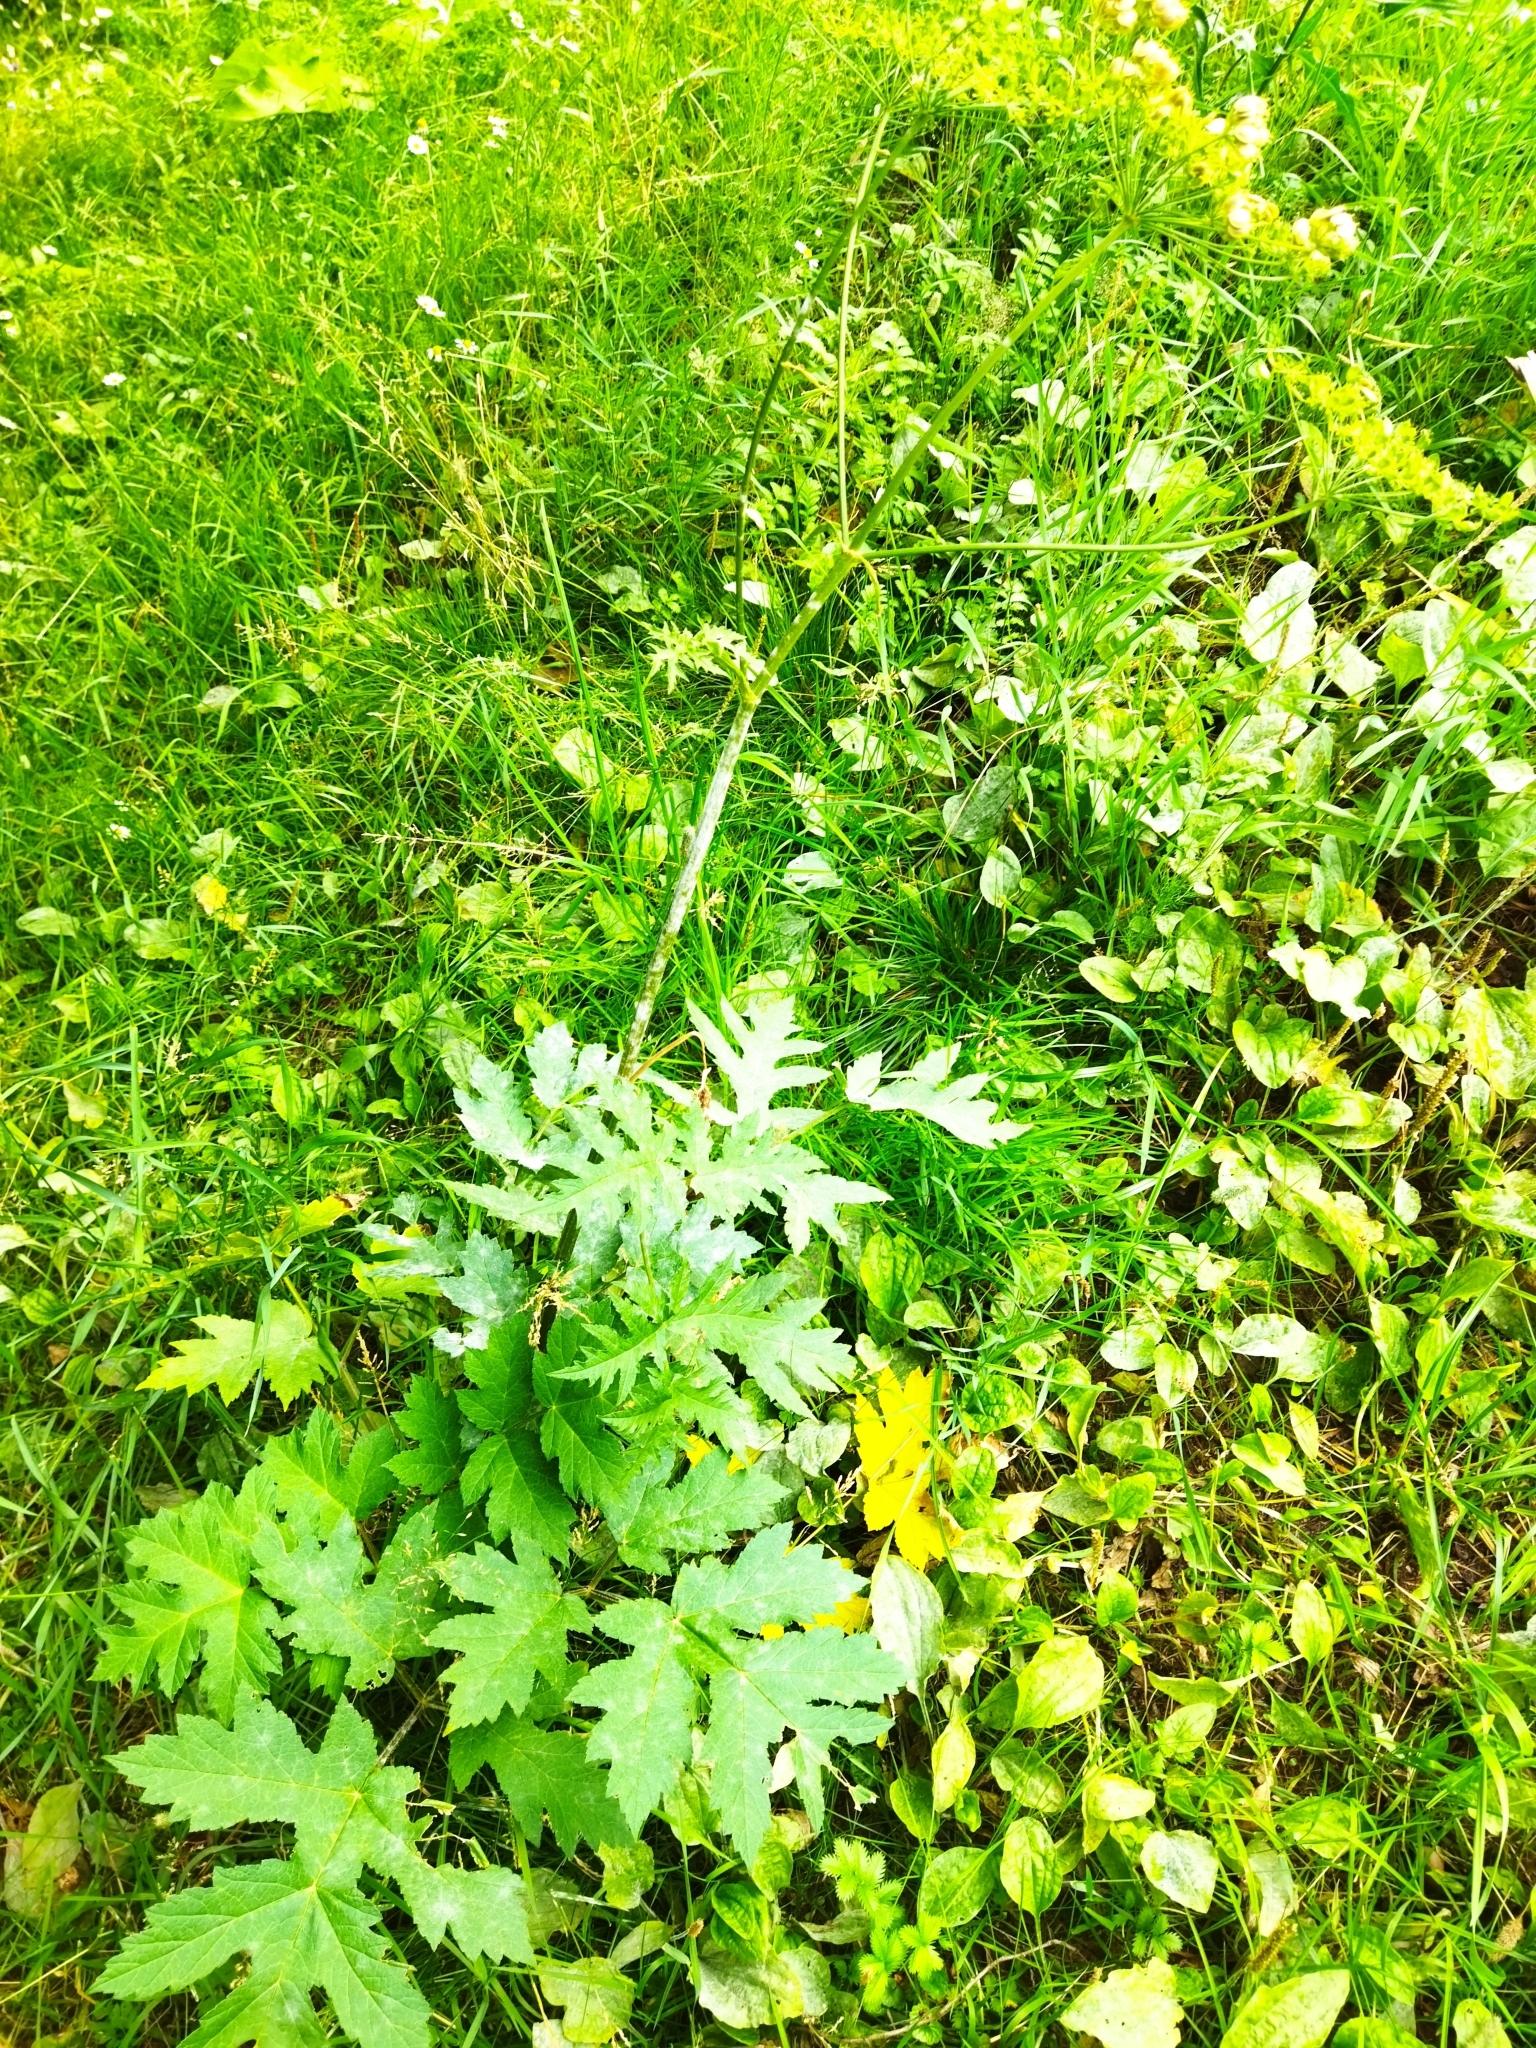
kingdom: Plantae
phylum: Tracheophyta
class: Magnoliopsida
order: Apiales
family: Apiaceae
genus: Heracleum
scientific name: Heracleum sphondylium
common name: Hogweed
